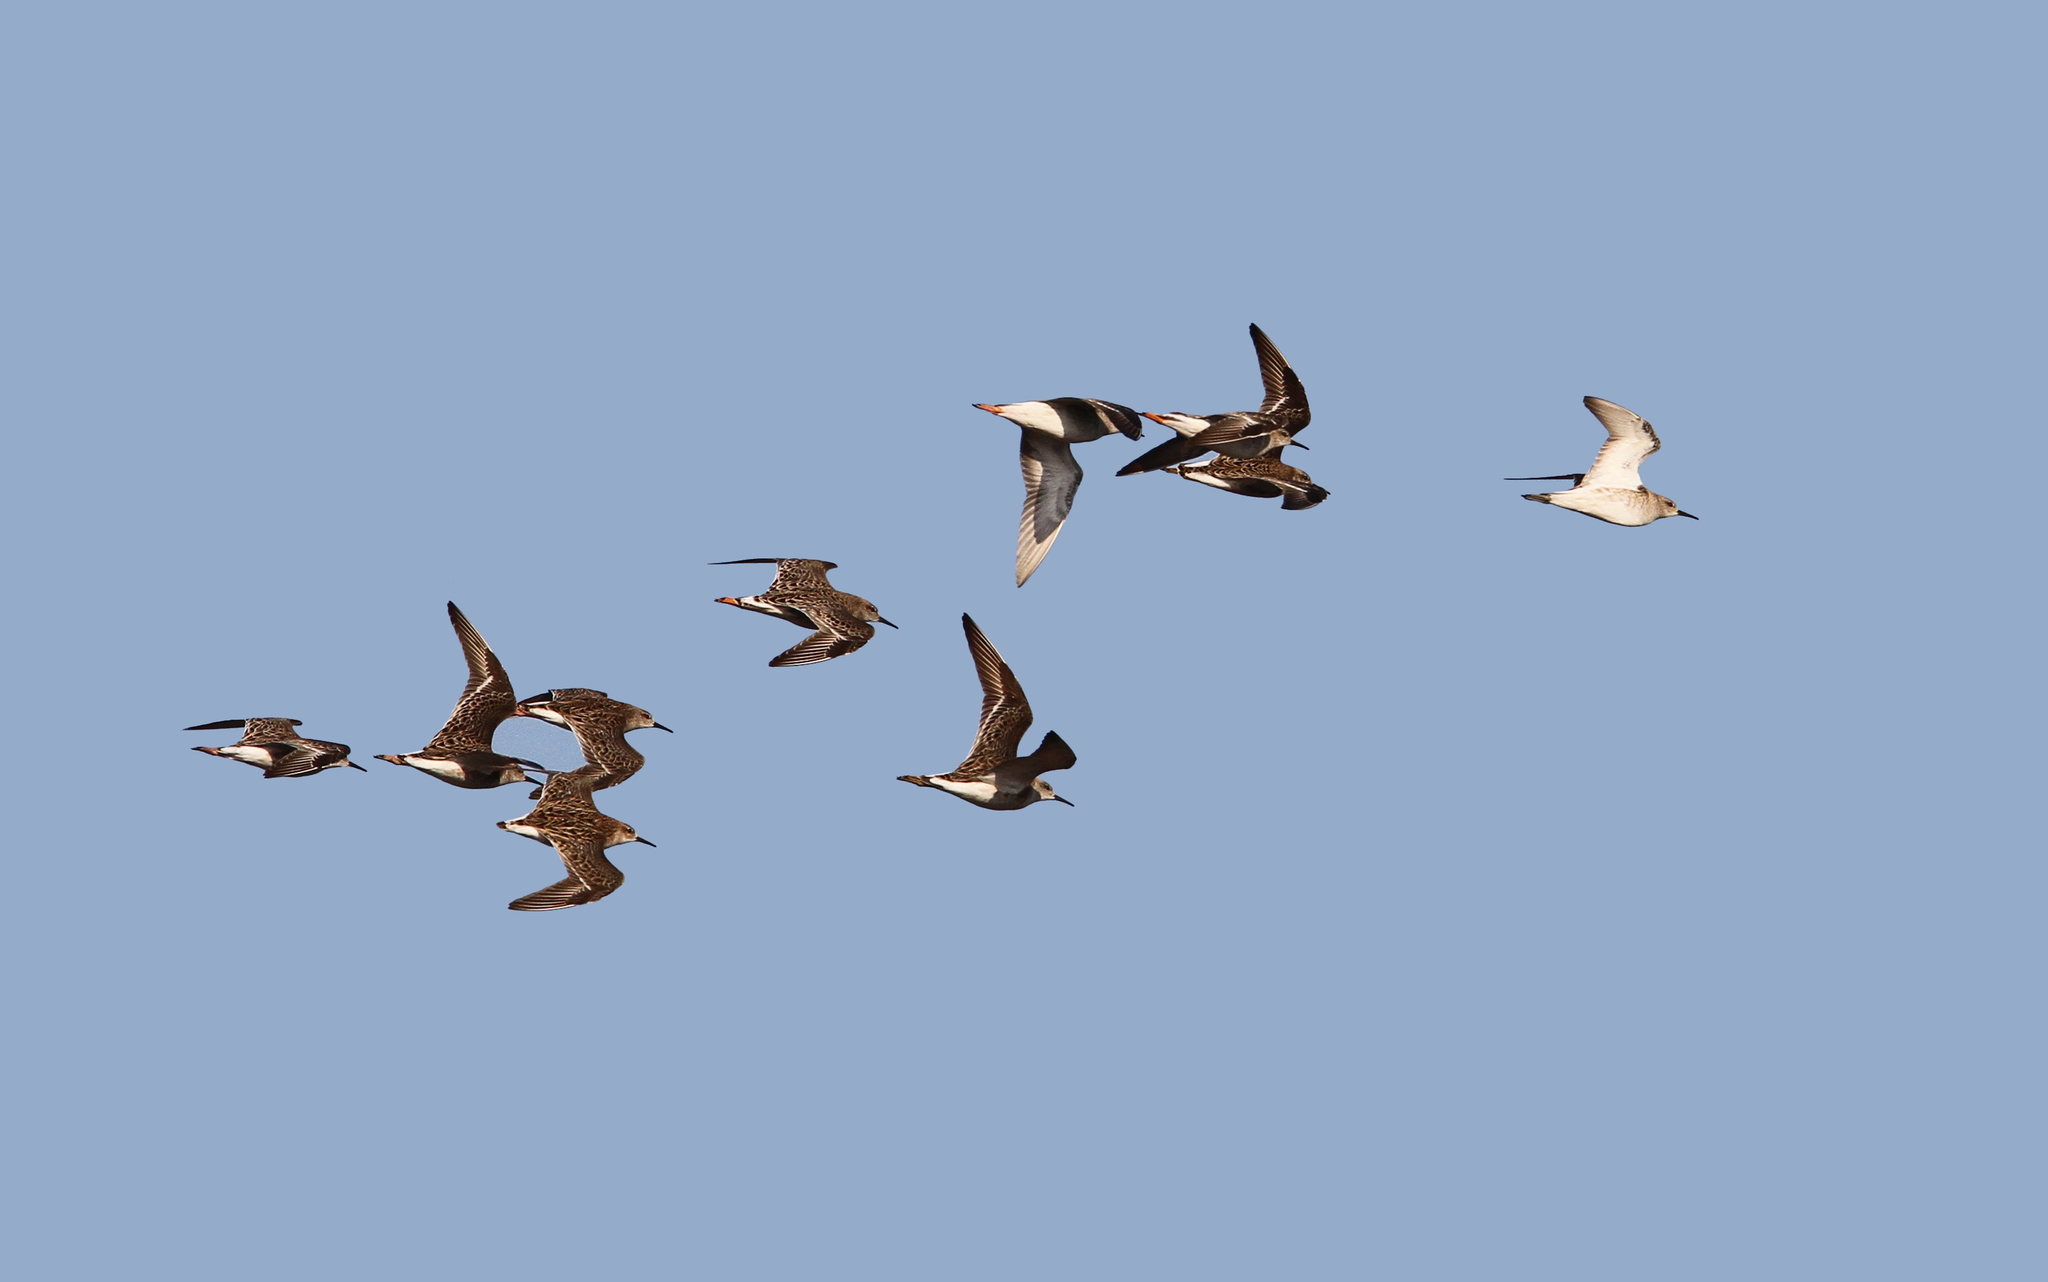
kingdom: Animalia
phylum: Chordata
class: Aves
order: Charadriiformes
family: Scolopacidae
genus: Calidris
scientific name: Calidris pugnax
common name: Ruff
